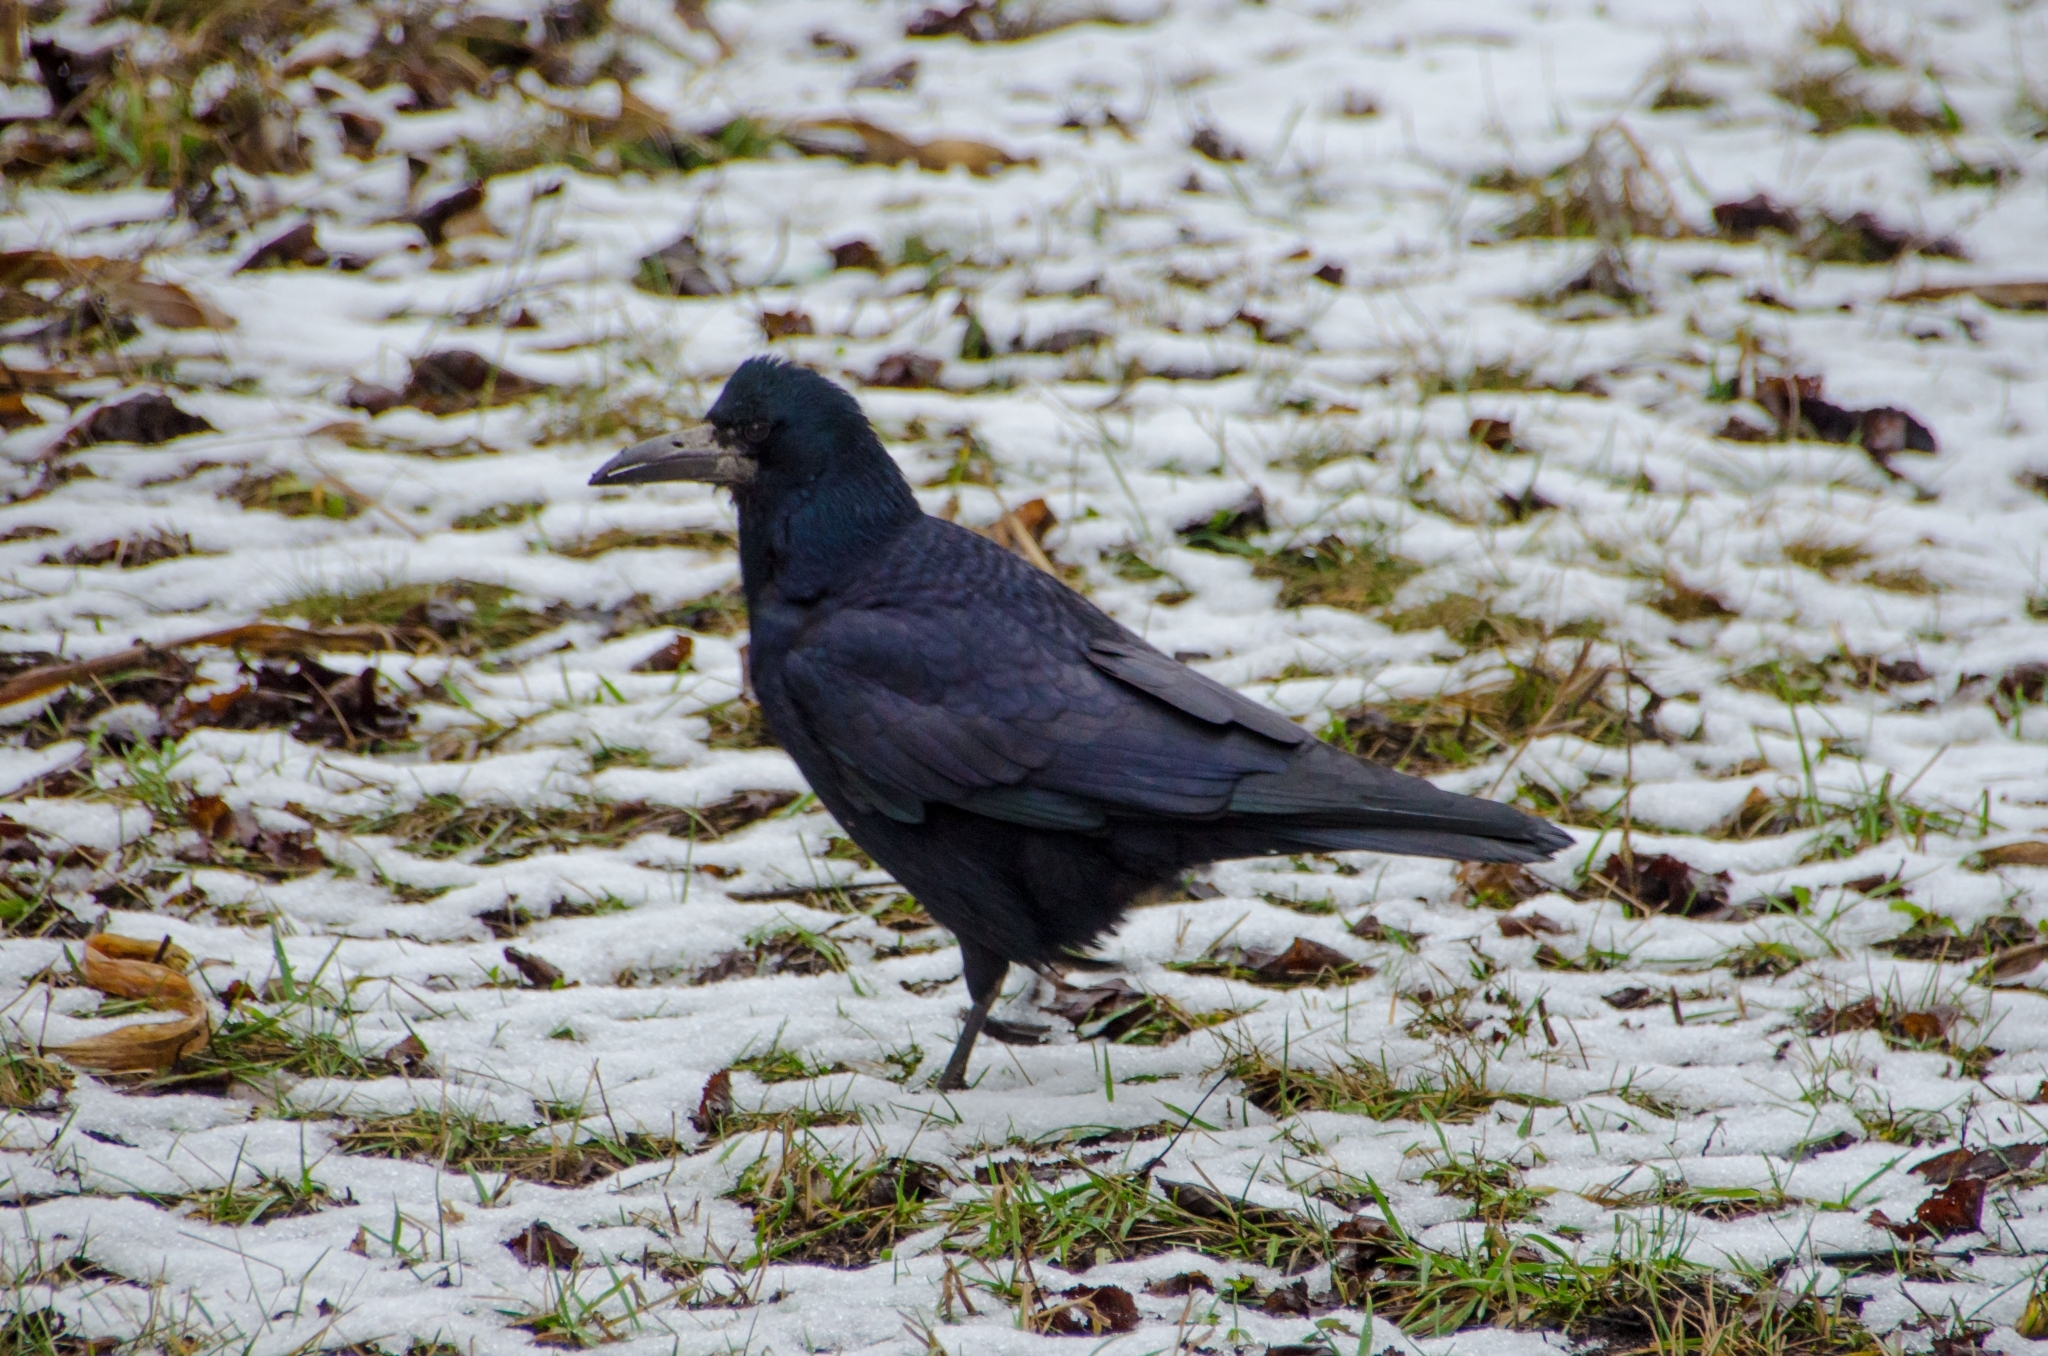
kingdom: Animalia
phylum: Chordata
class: Aves
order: Passeriformes
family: Corvidae
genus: Corvus
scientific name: Corvus frugilegus
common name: Rook
